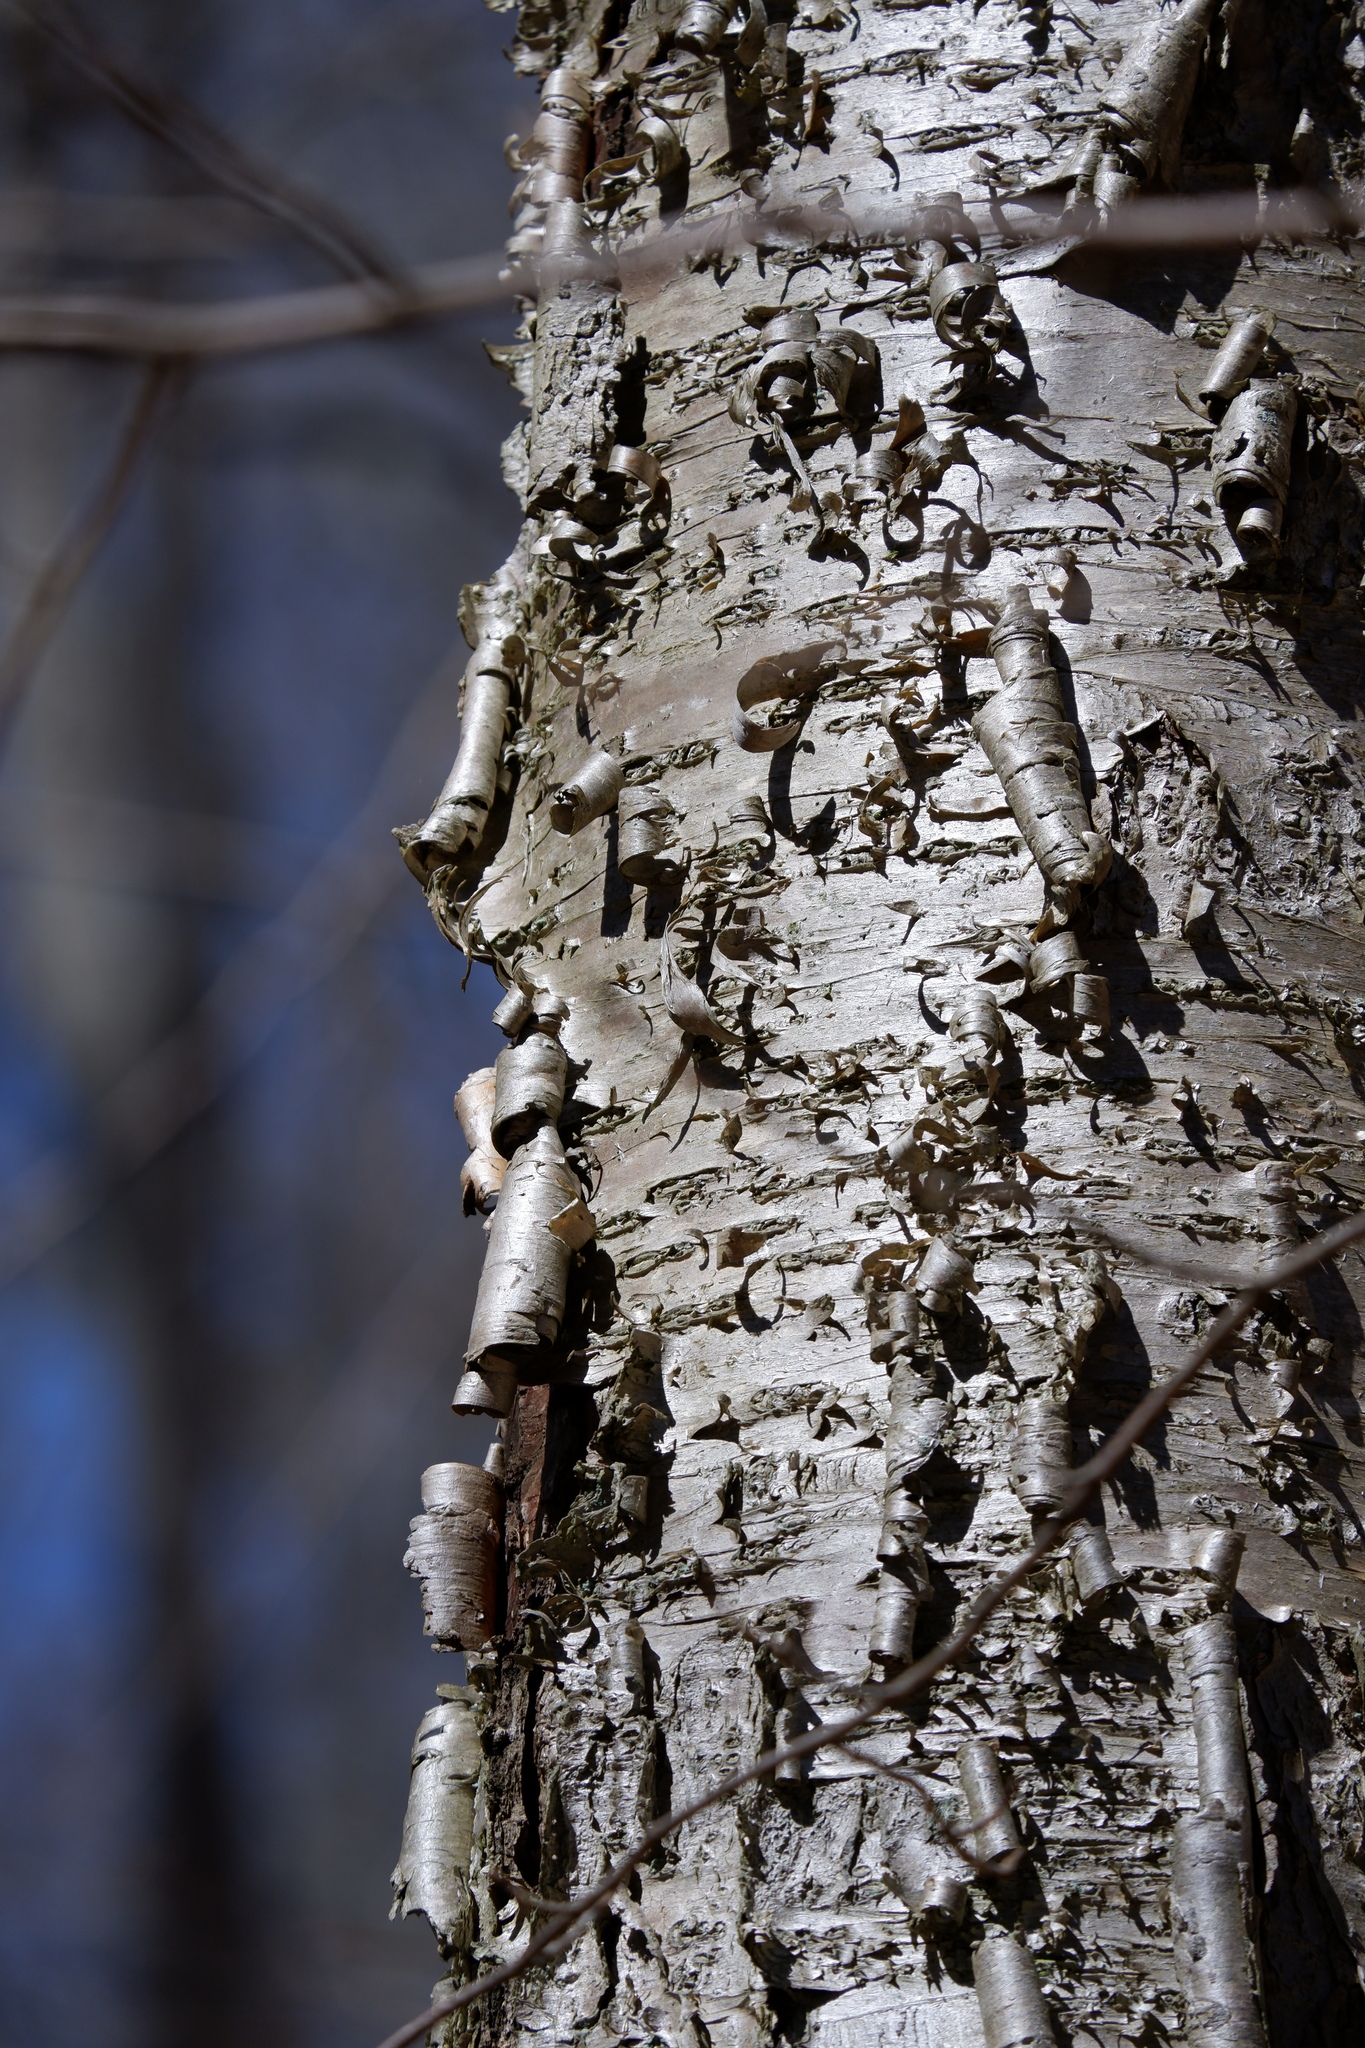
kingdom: Plantae
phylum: Tracheophyta
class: Magnoliopsida
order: Fagales
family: Betulaceae
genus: Betula
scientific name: Betula alleghaniensis
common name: Yellow birch
